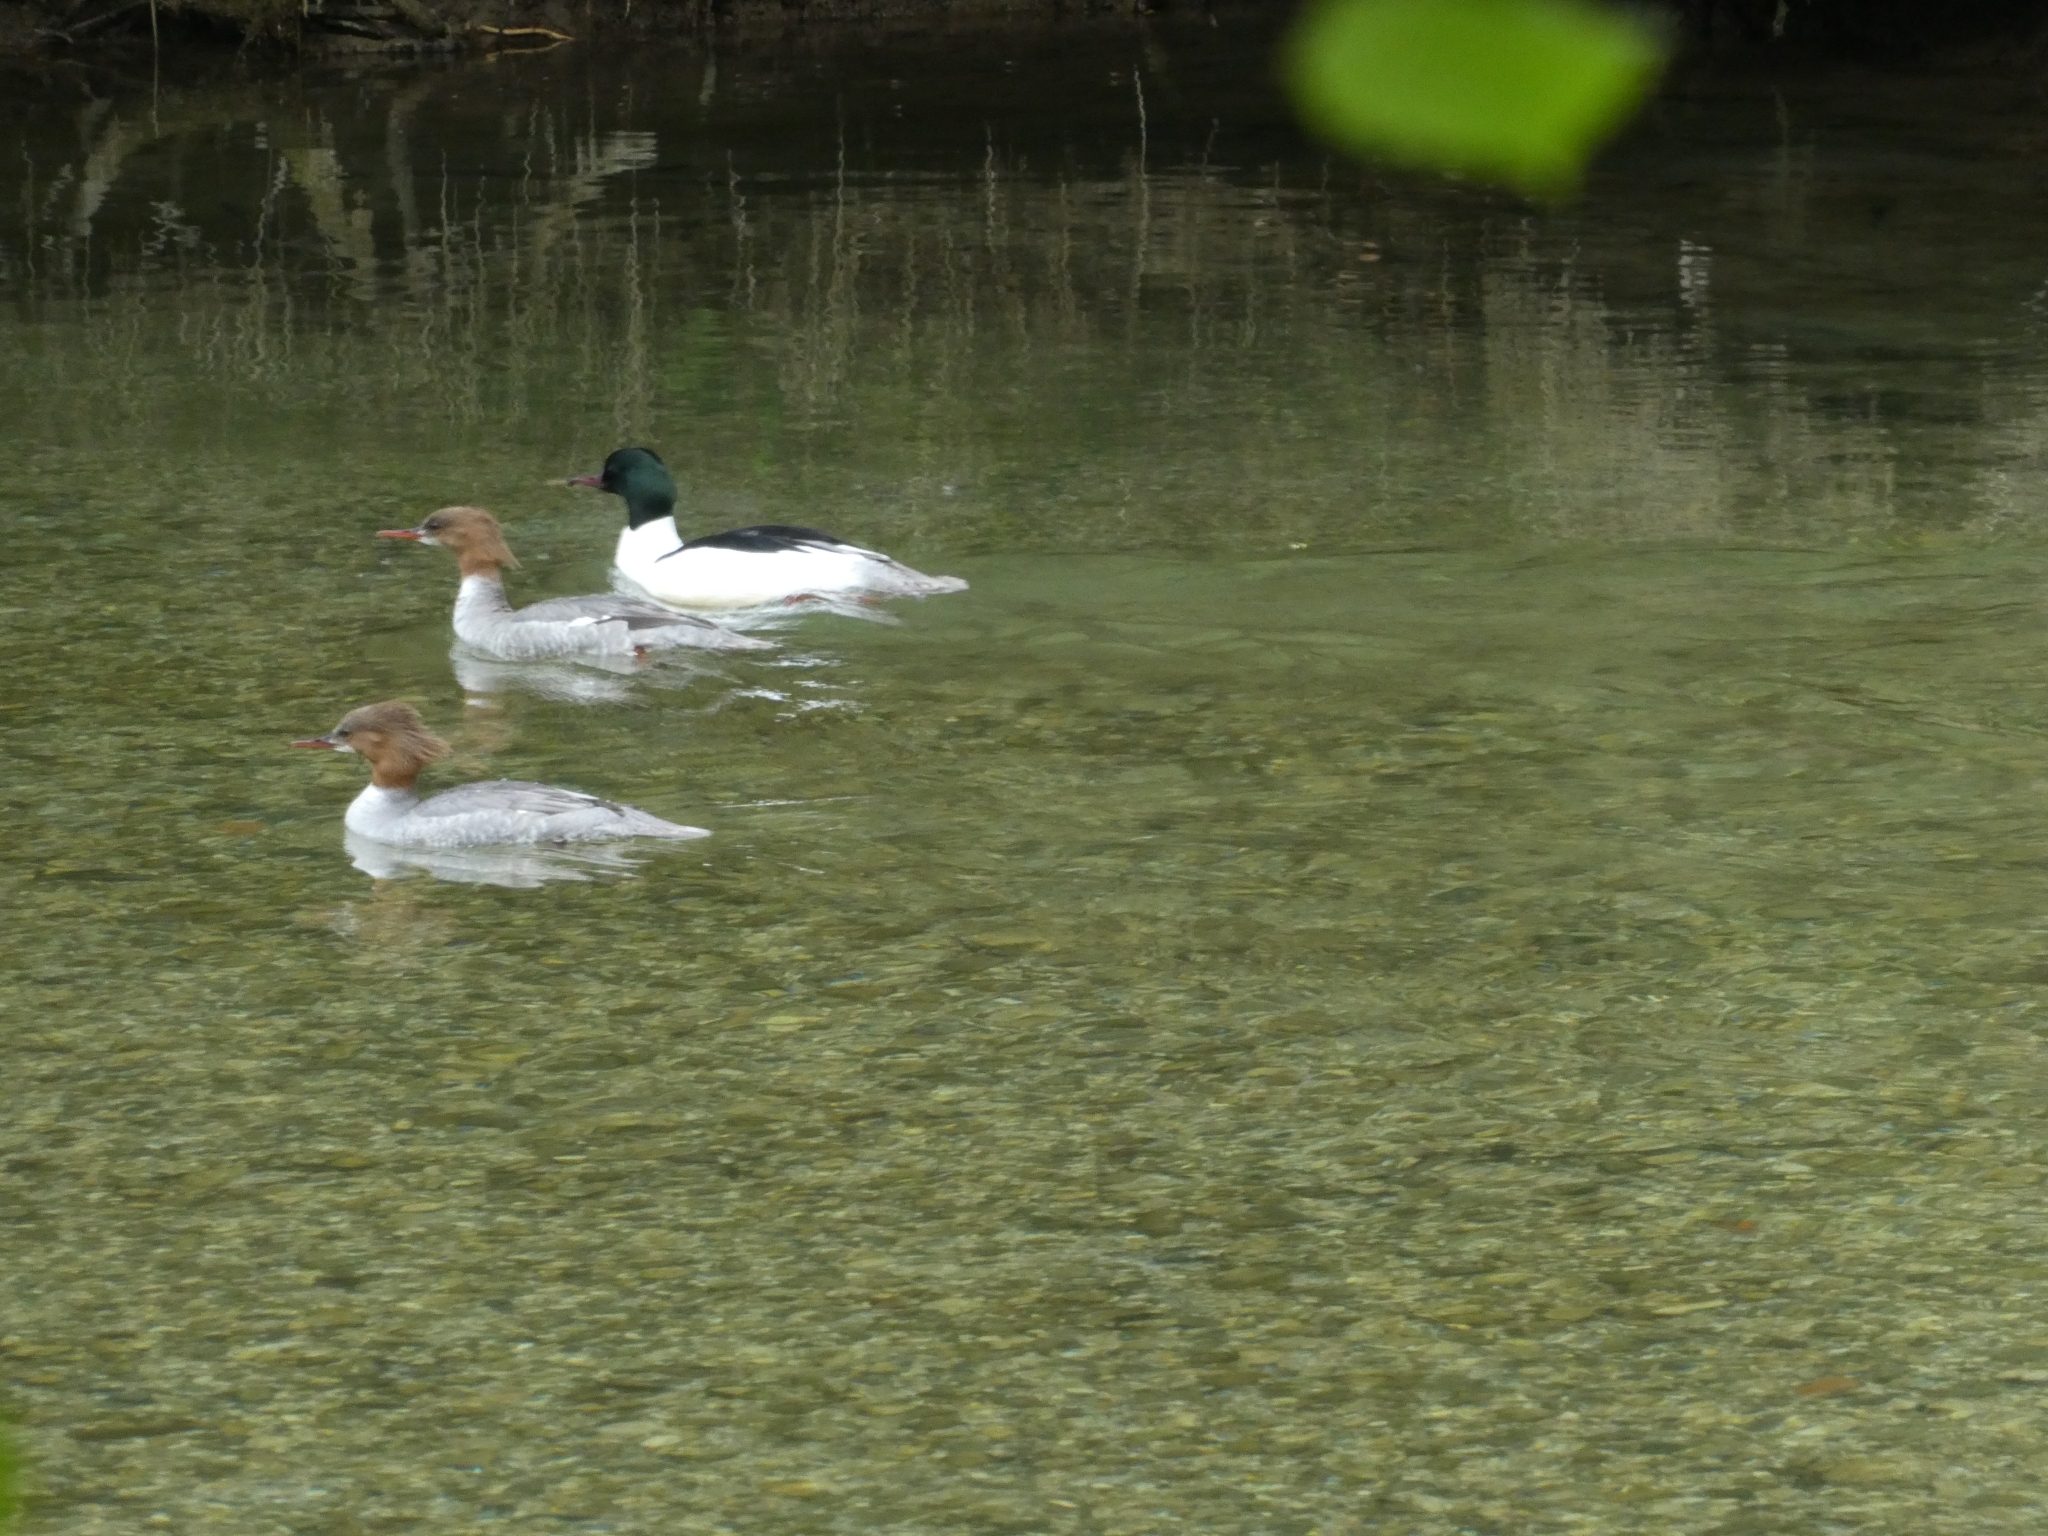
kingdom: Animalia
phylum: Chordata
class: Aves
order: Anseriformes
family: Anatidae
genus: Mergus
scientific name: Mergus merganser
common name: Common merganser
